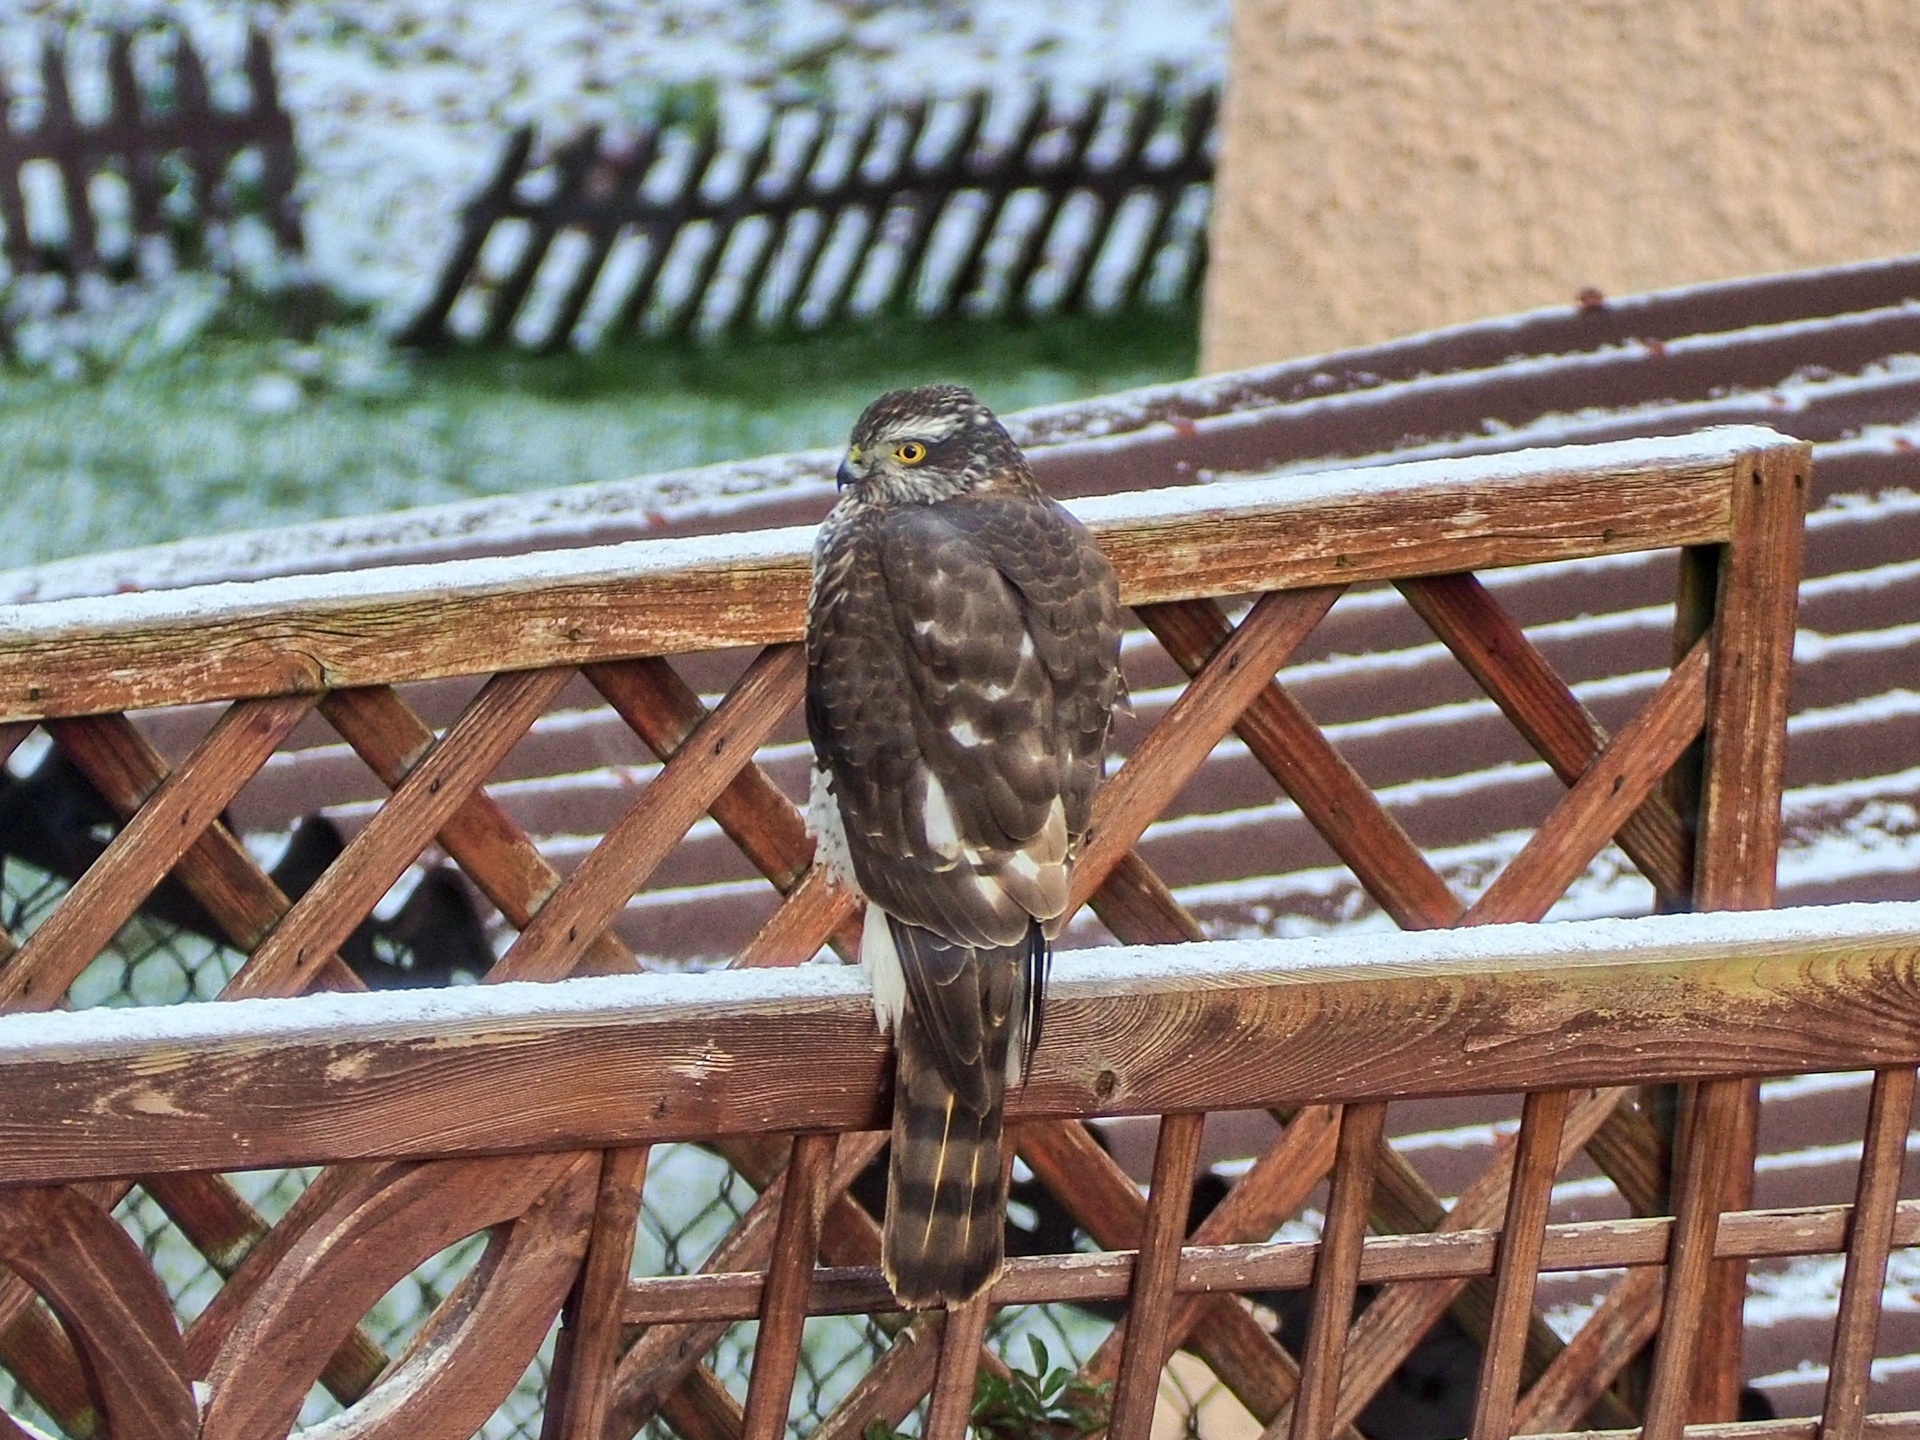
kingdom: Animalia
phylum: Chordata
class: Aves
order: Accipitriformes
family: Accipitridae
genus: Accipiter
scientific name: Accipiter nisus
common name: Eurasian sparrowhawk
